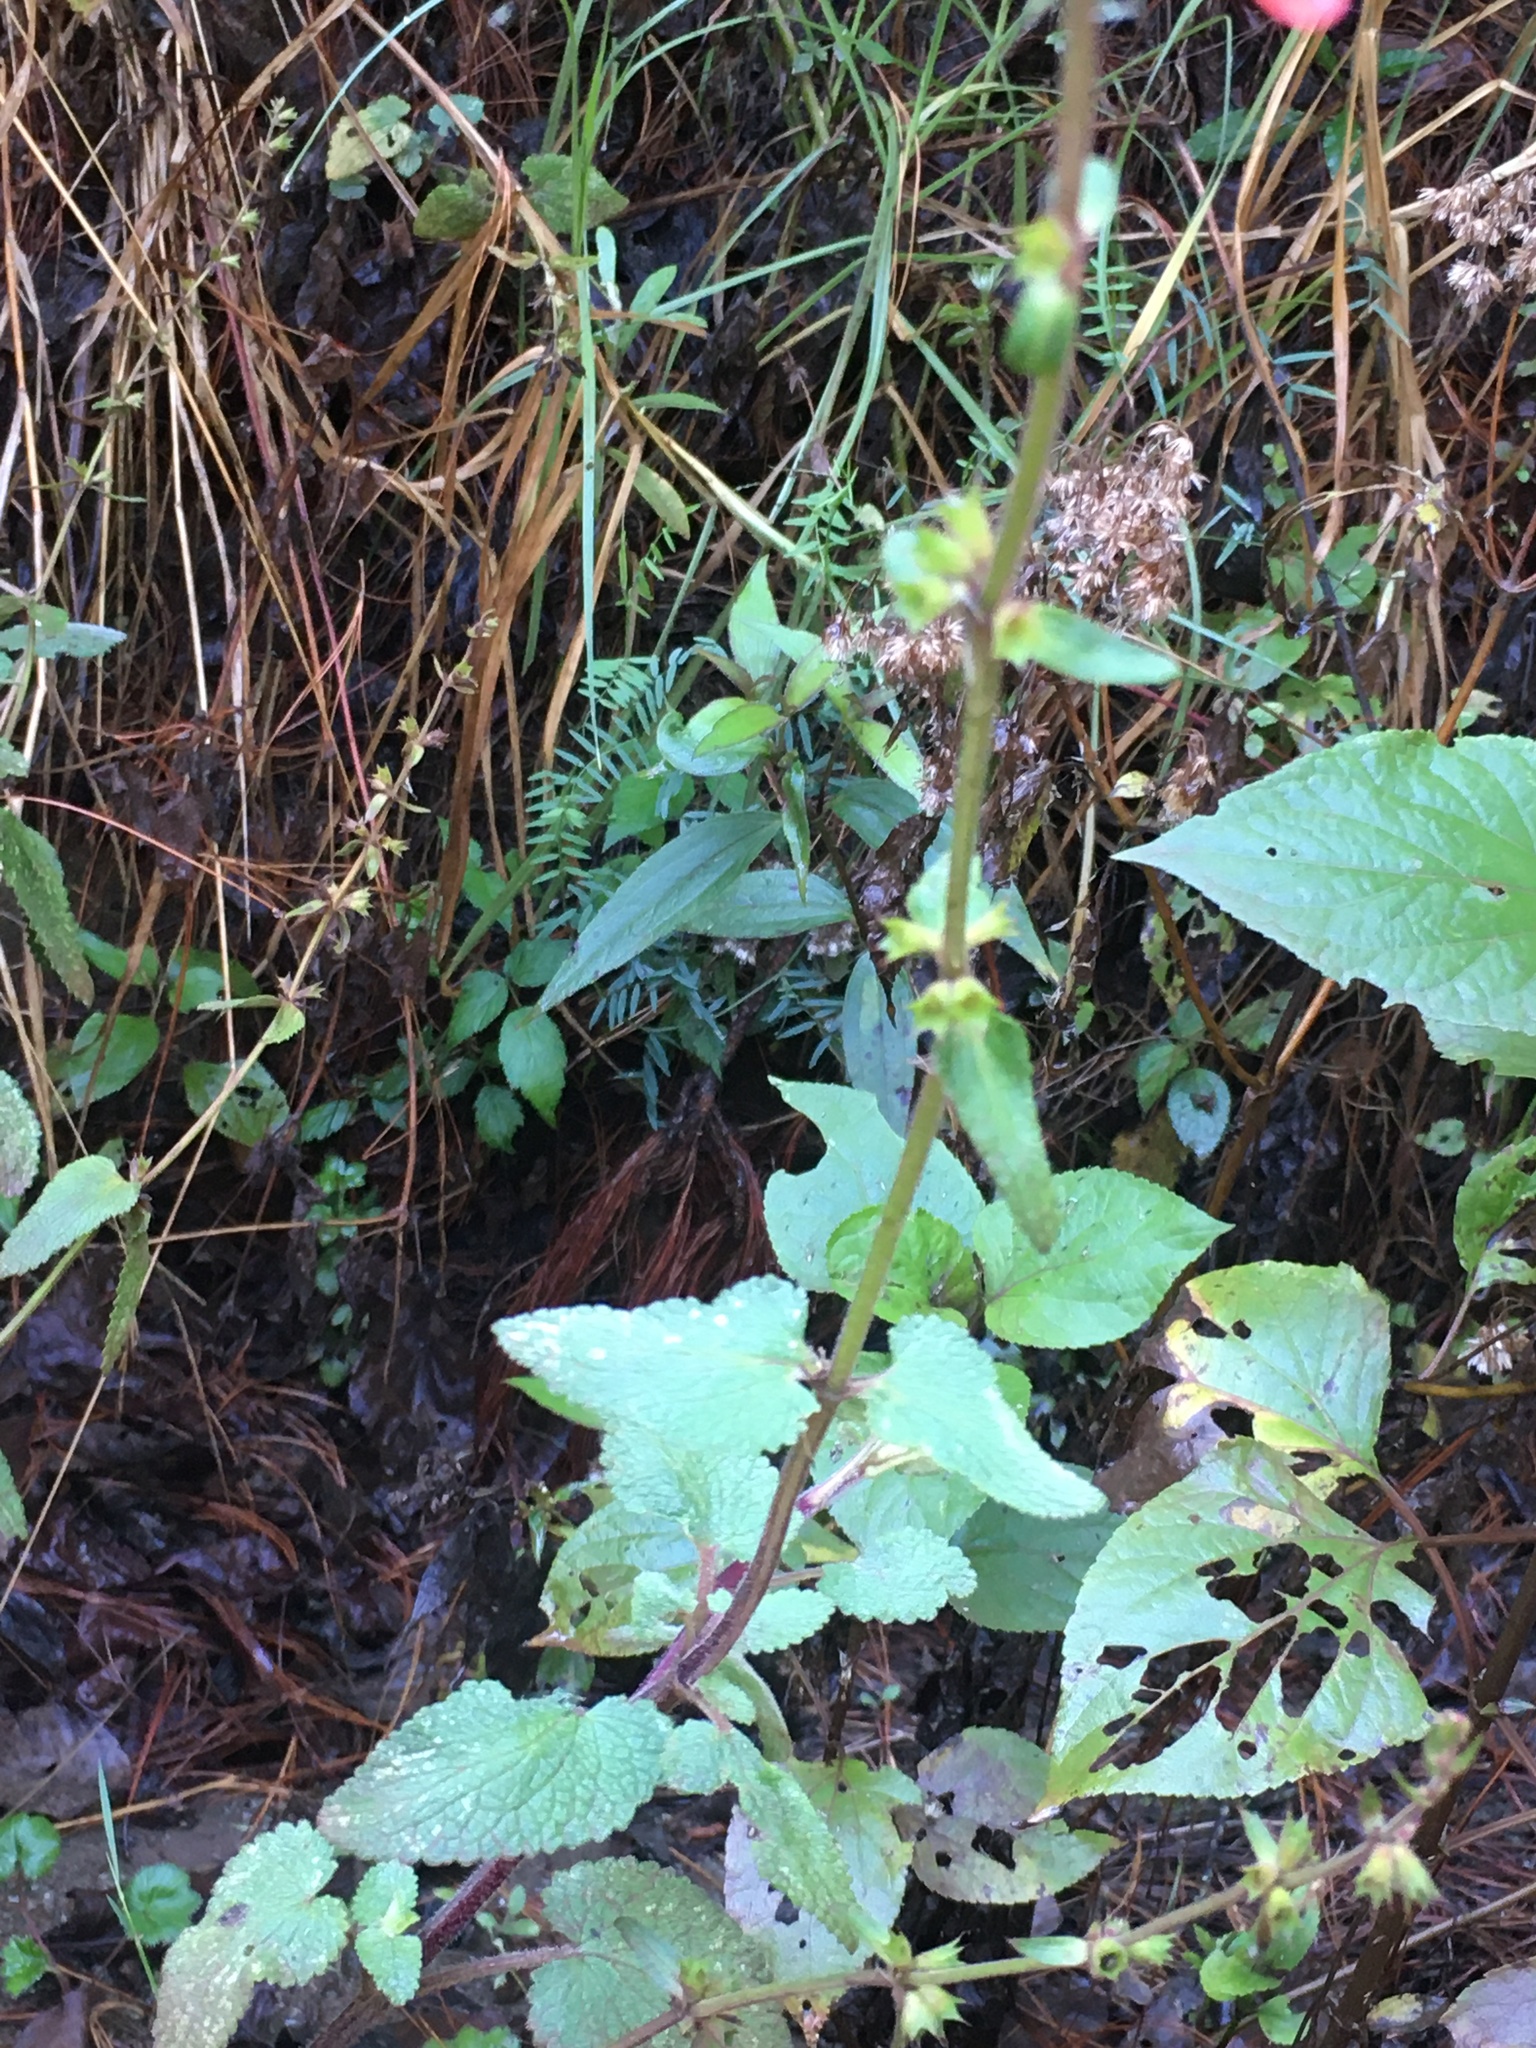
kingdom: Plantae
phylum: Tracheophyta
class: Magnoliopsida
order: Lamiales
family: Lamiaceae
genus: Stachys
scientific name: Stachys coccinea
